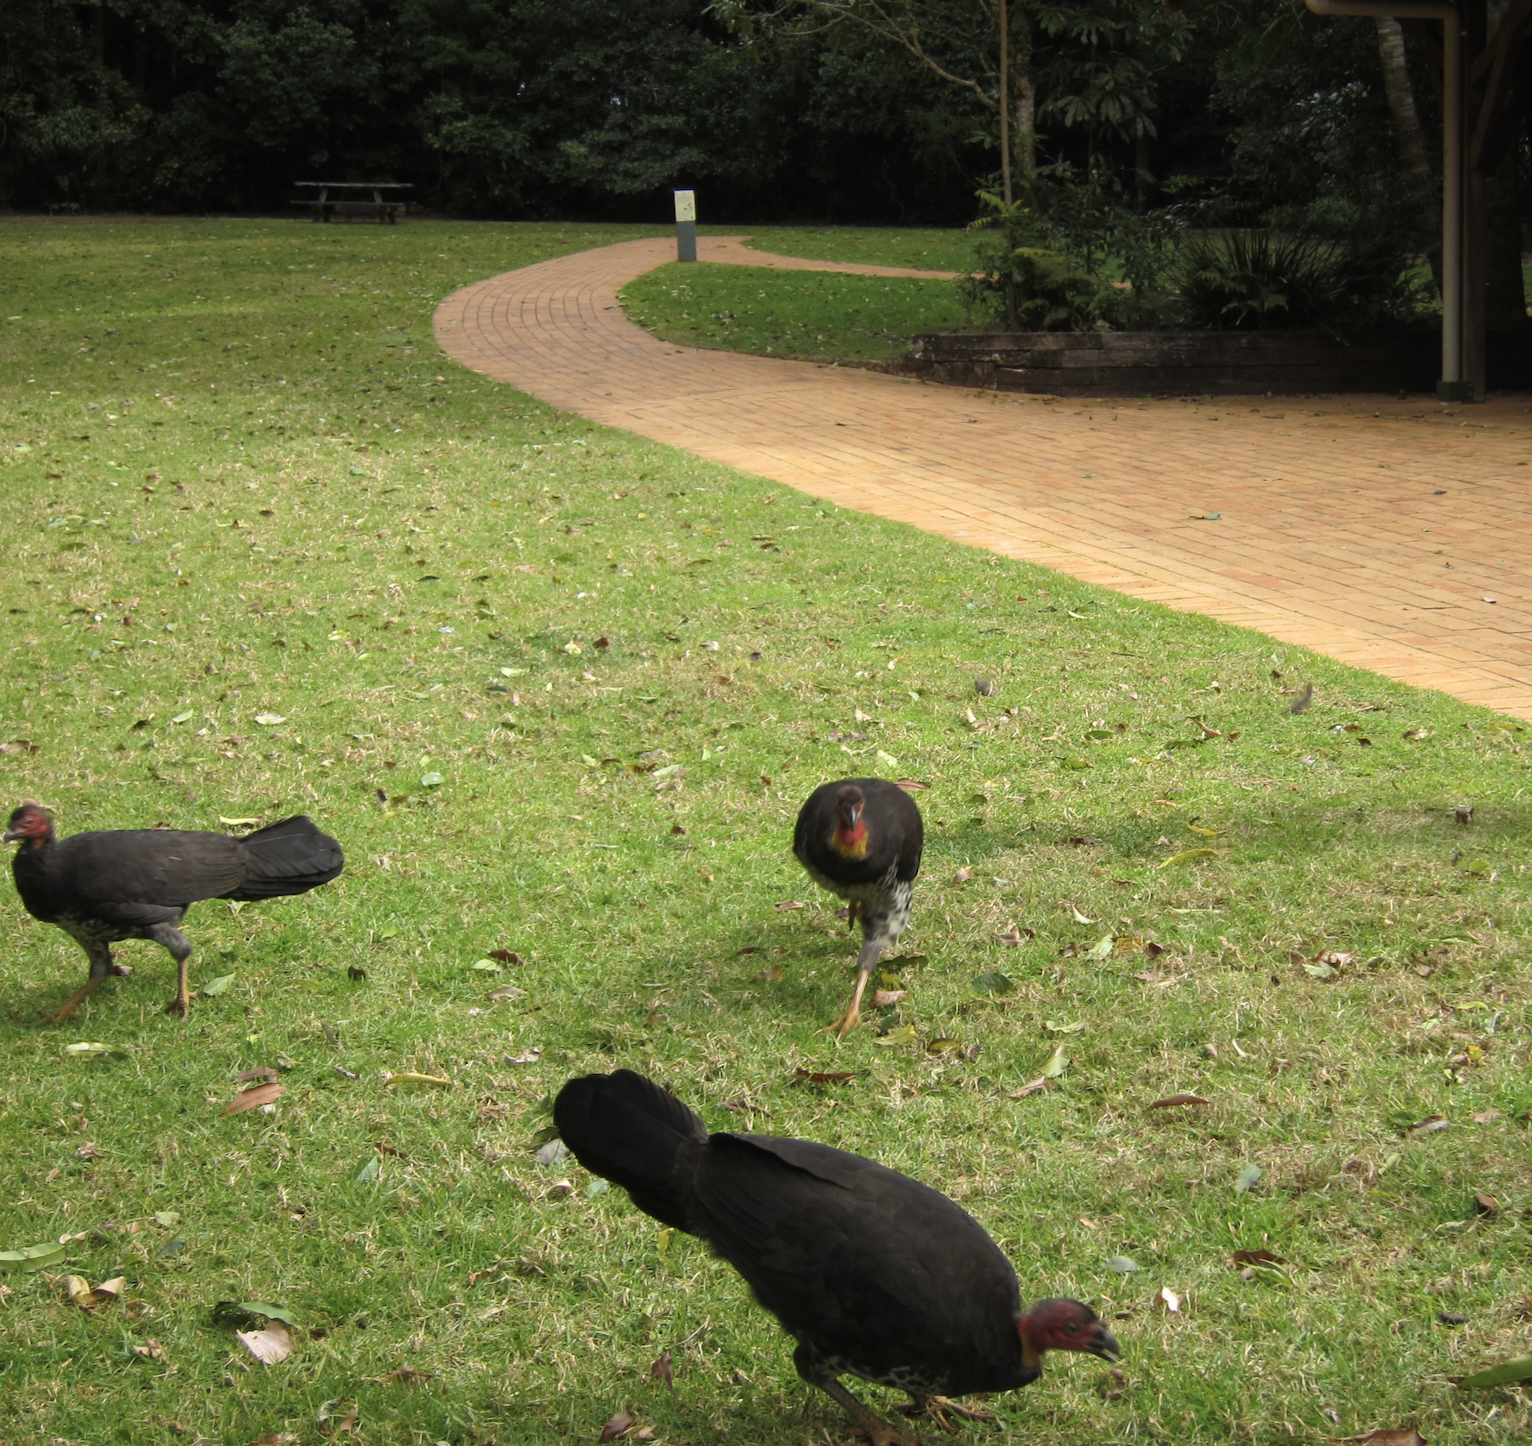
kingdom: Animalia
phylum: Chordata
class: Aves
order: Galliformes
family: Megapodiidae
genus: Alectura
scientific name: Alectura lathami
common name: Australian brushturkey
